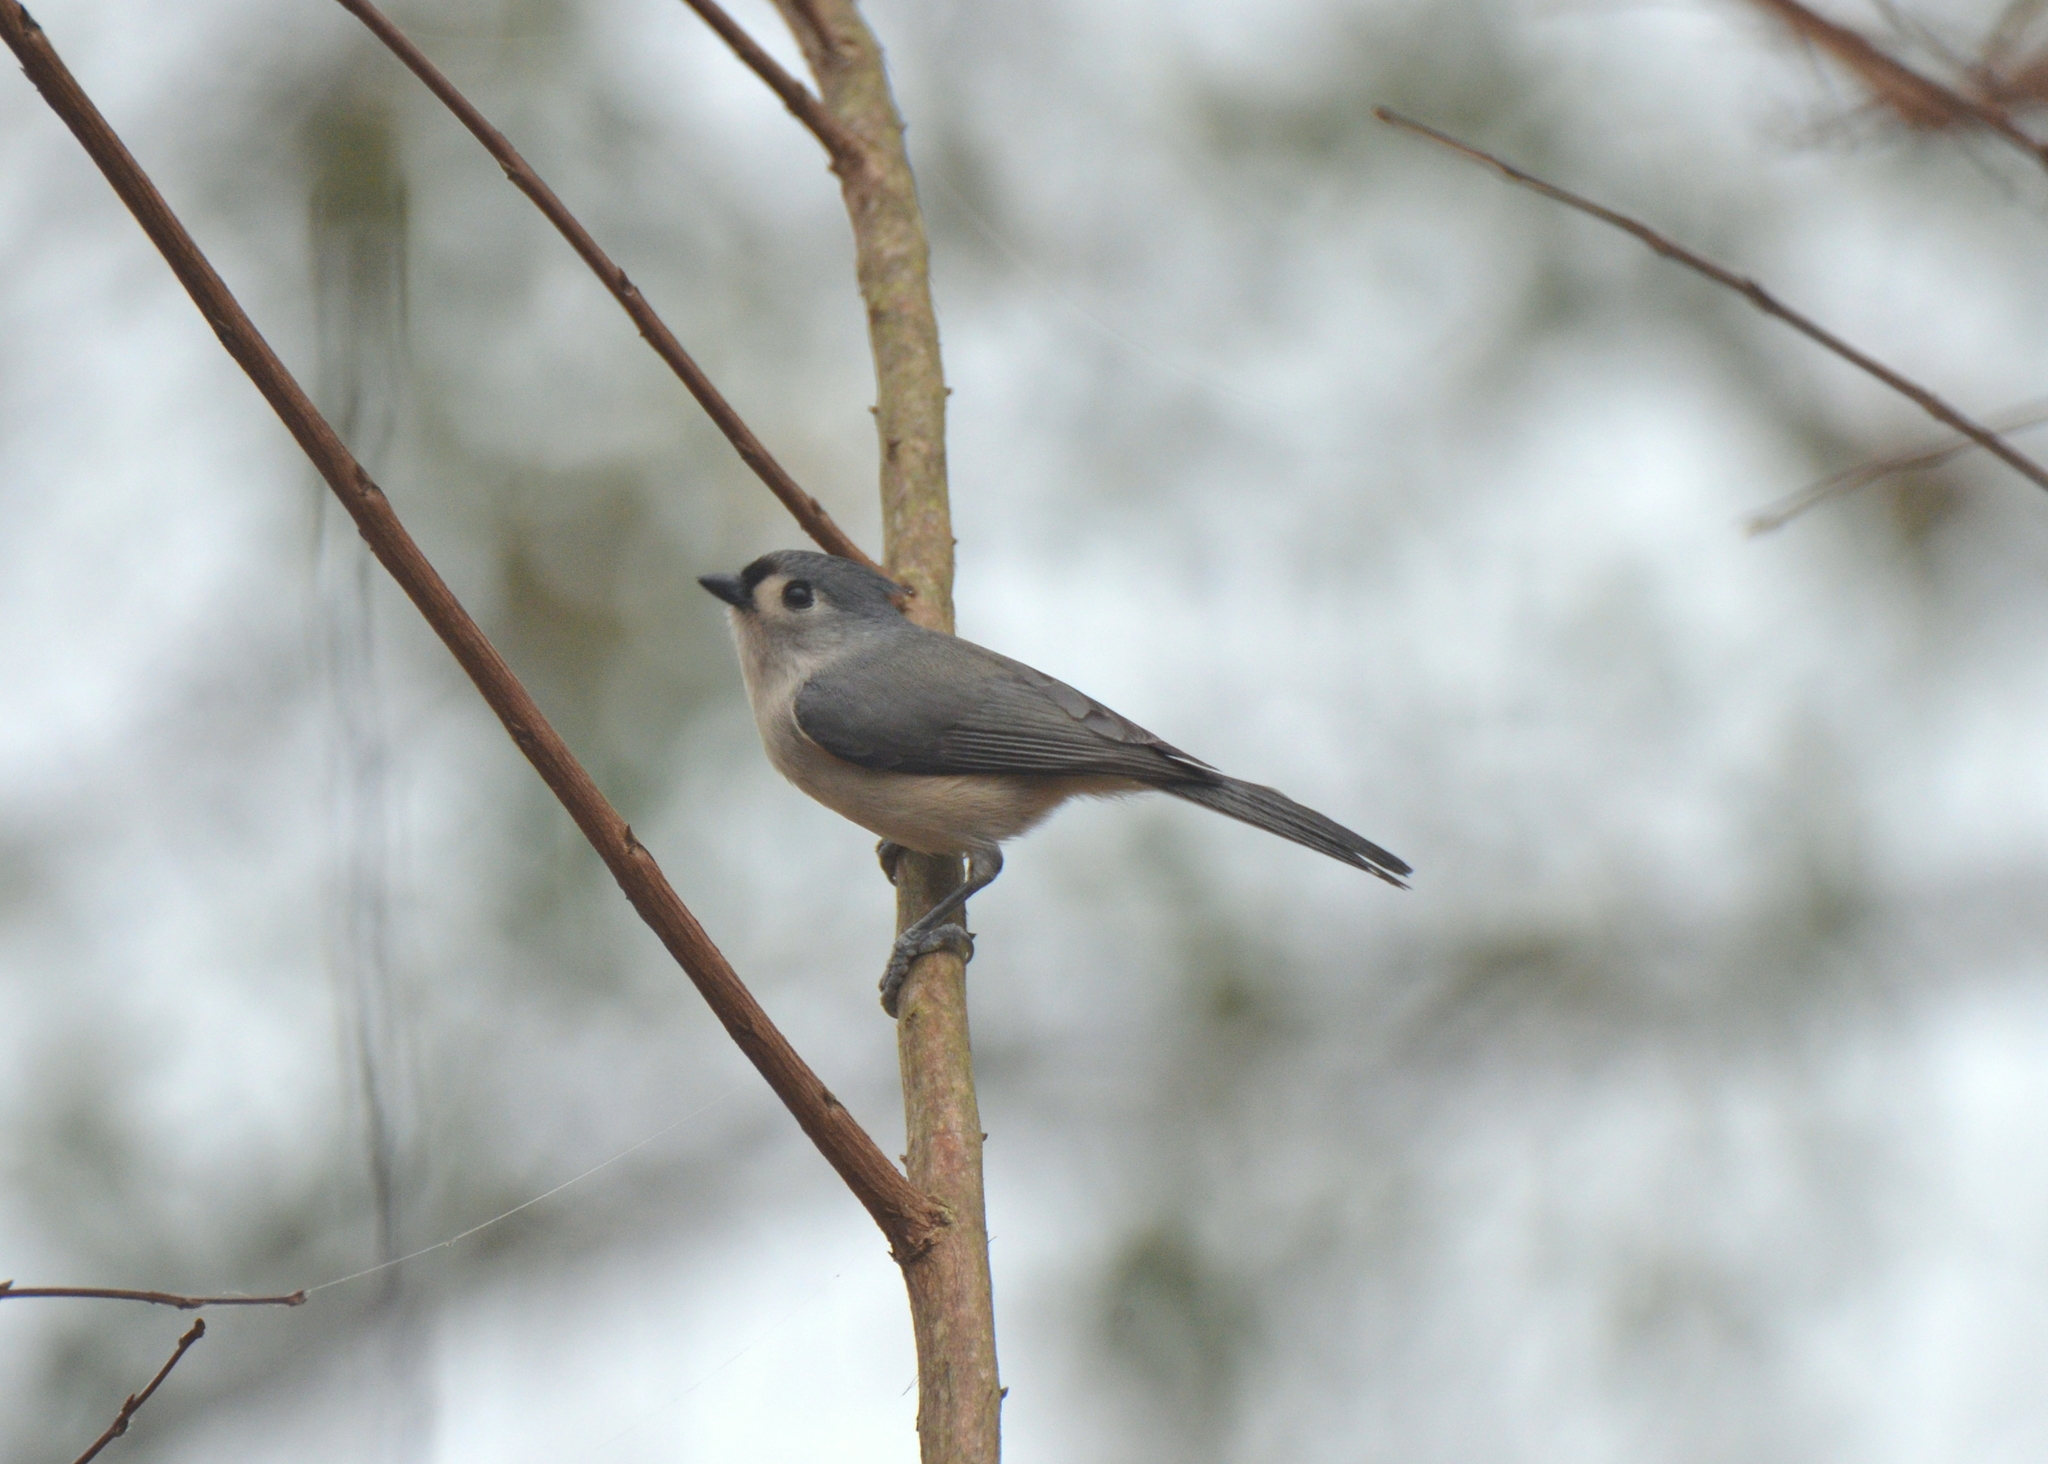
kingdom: Animalia
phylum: Chordata
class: Aves
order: Passeriformes
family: Paridae
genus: Baeolophus
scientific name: Baeolophus bicolor
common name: Tufted titmouse
